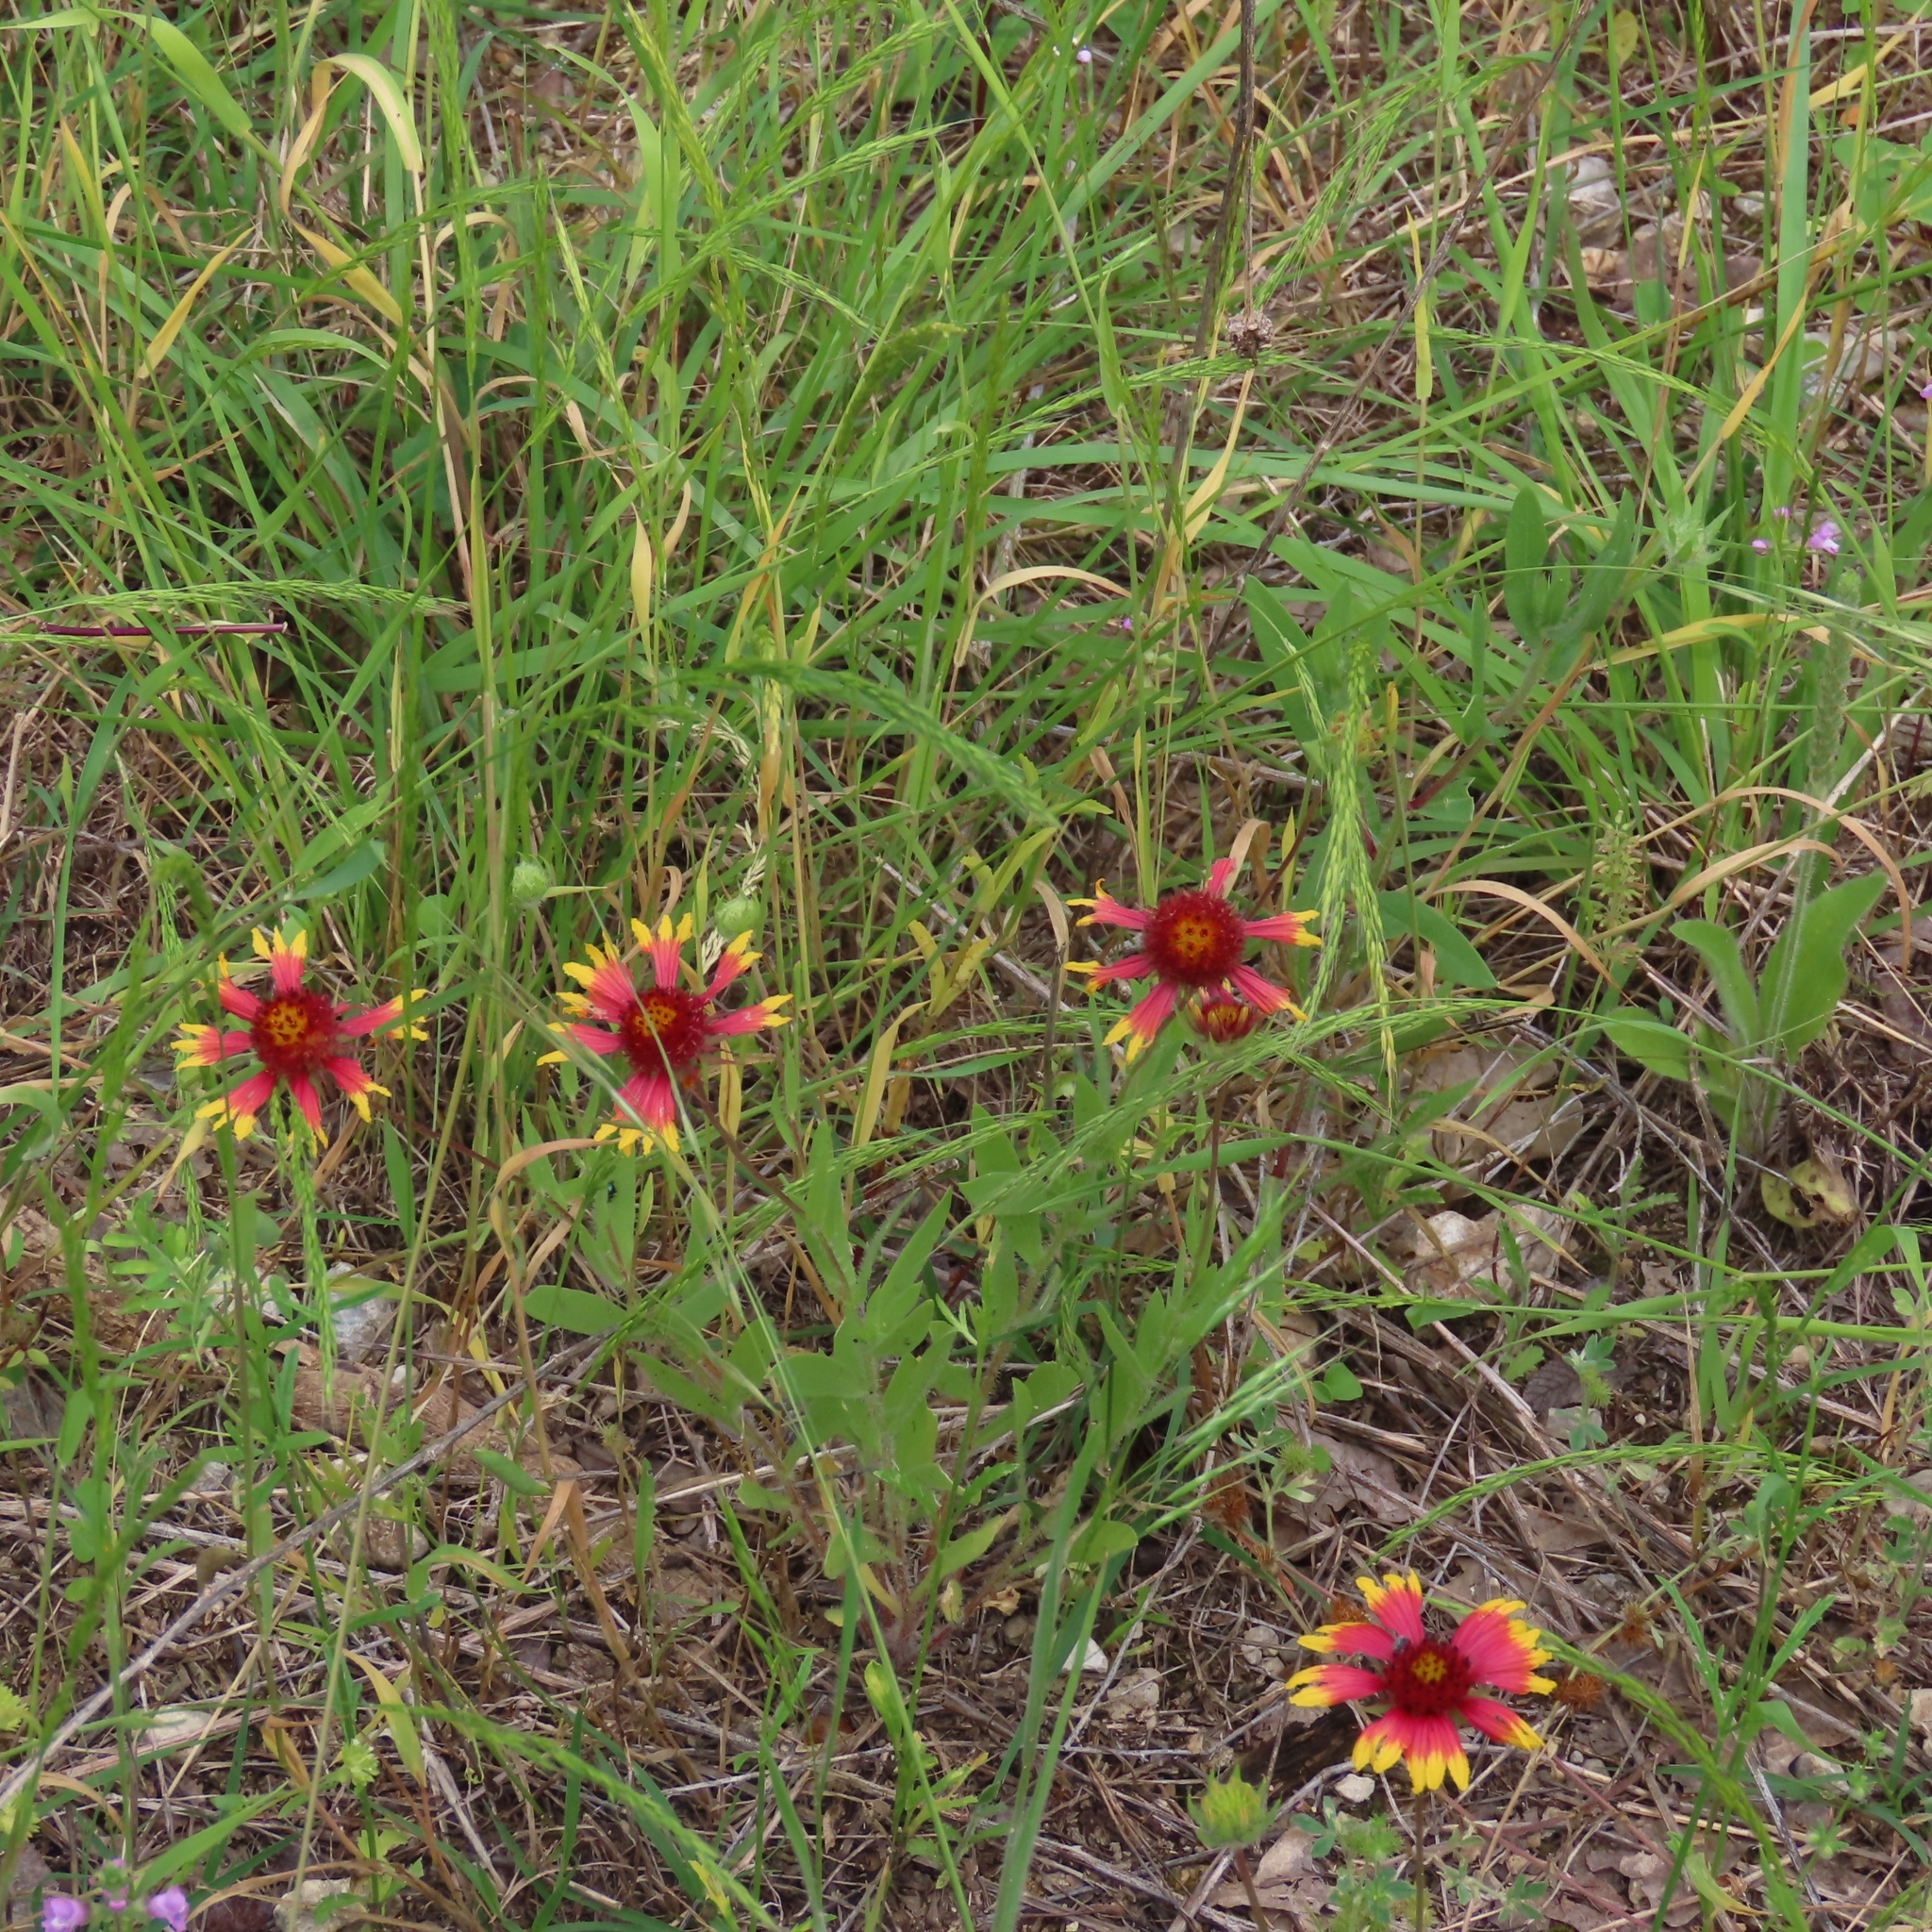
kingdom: Plantae
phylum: Tracheophyta
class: Magnoliopsida
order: Asterales
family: Asteraceae
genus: Gaillardia
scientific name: Gaillardia pulchella
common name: Firewheel
